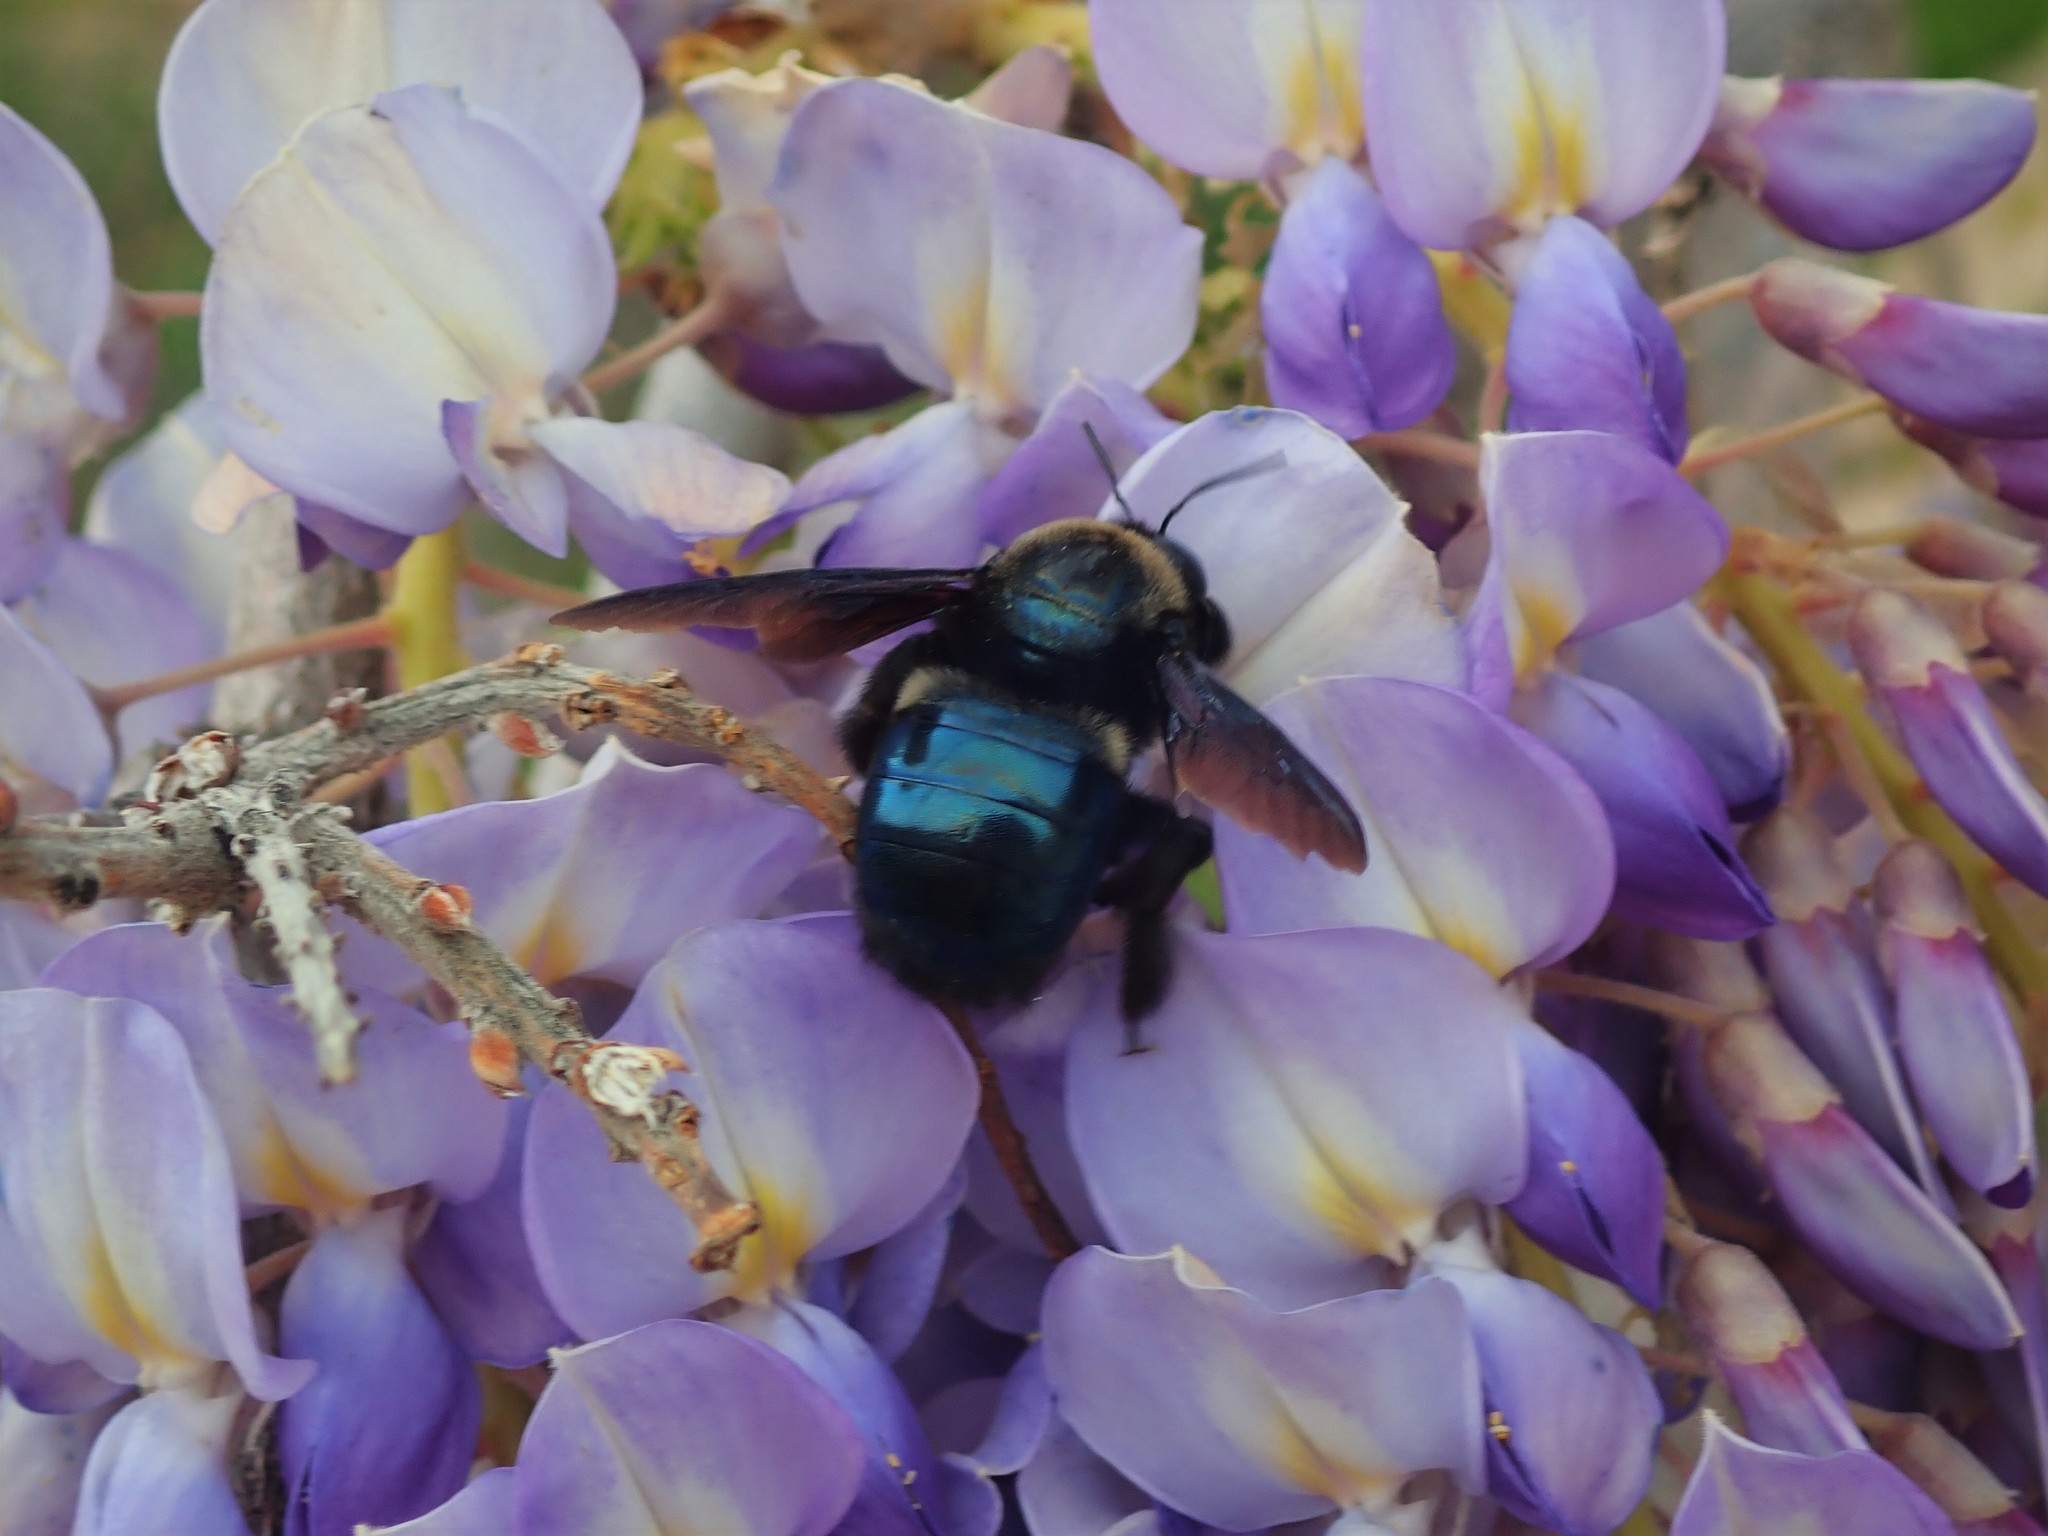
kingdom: Animalia
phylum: Arthropoda
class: Insecta
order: Hymenoptera
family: Apidae
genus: Xylocopa
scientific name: Xylocopa californica
